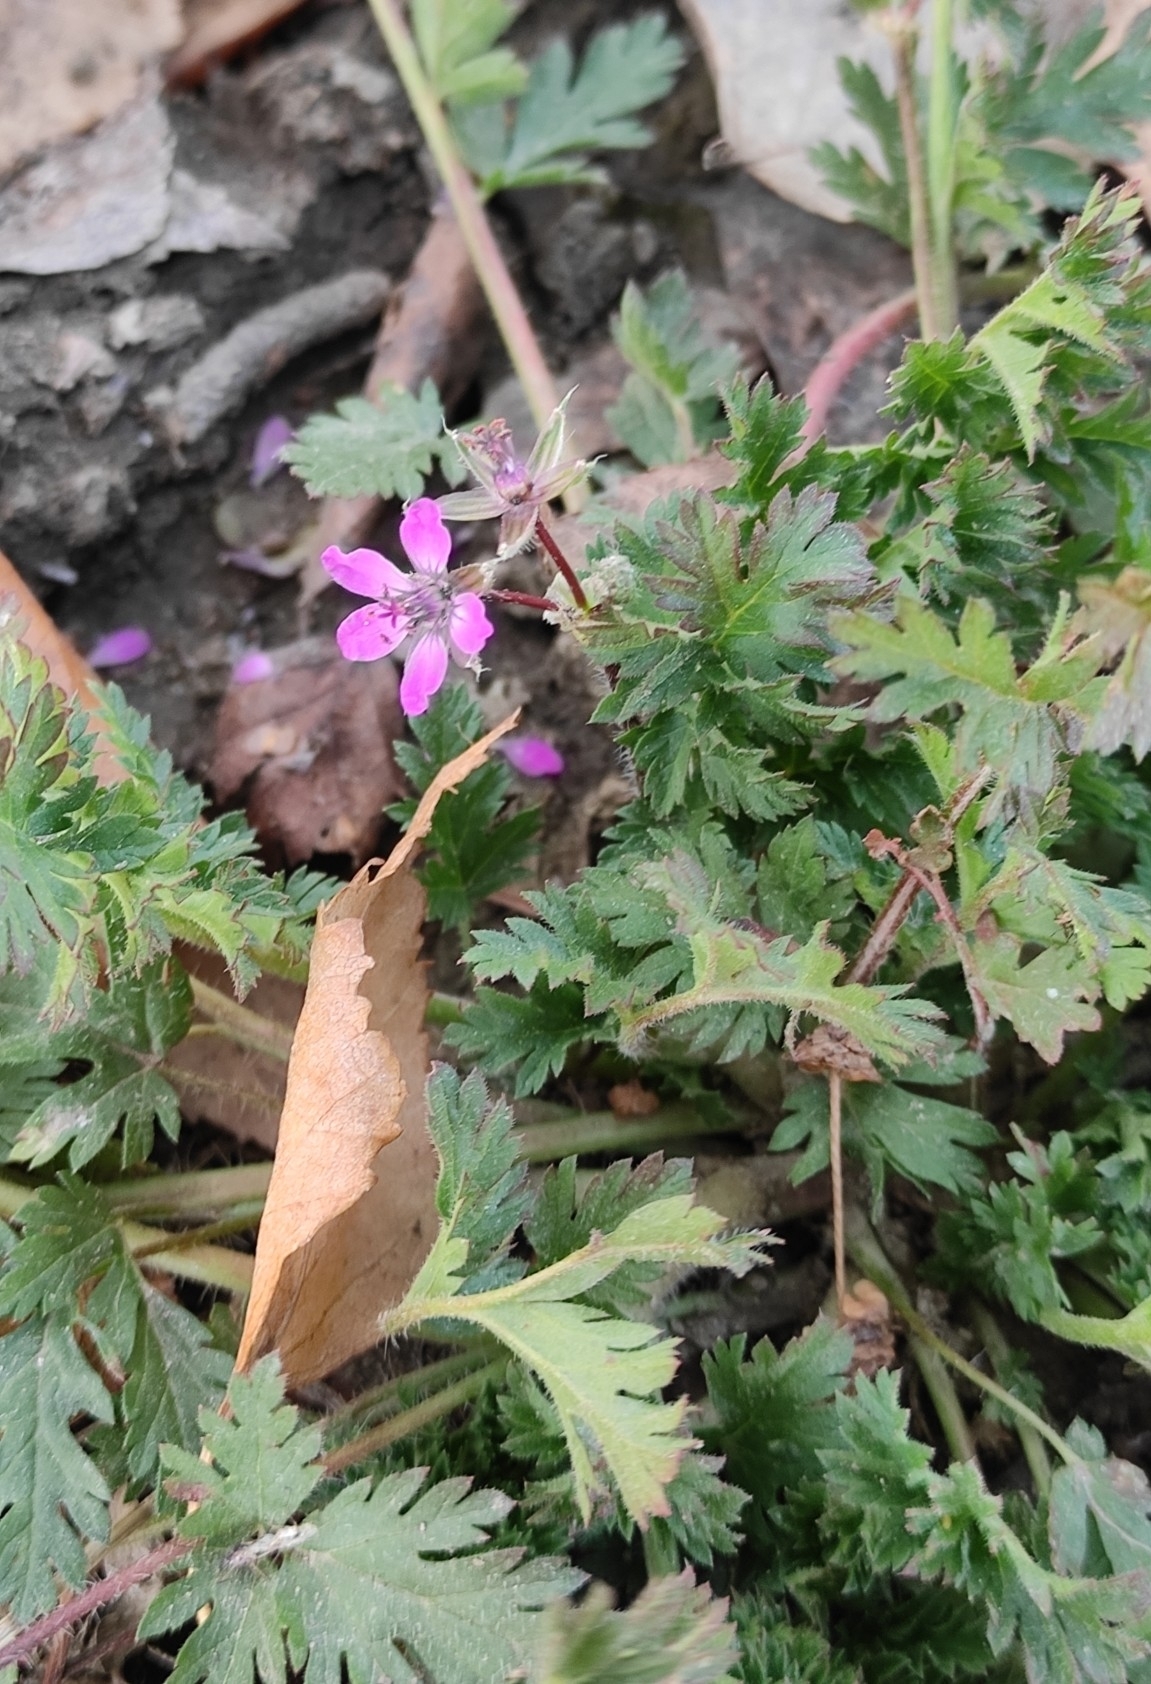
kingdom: Plantae
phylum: Tracheophyta
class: Magnoliopsida
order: Geraniales
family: Geraniaceae
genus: Erodium
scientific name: Erodium cicutarium
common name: Common stork's-bill
